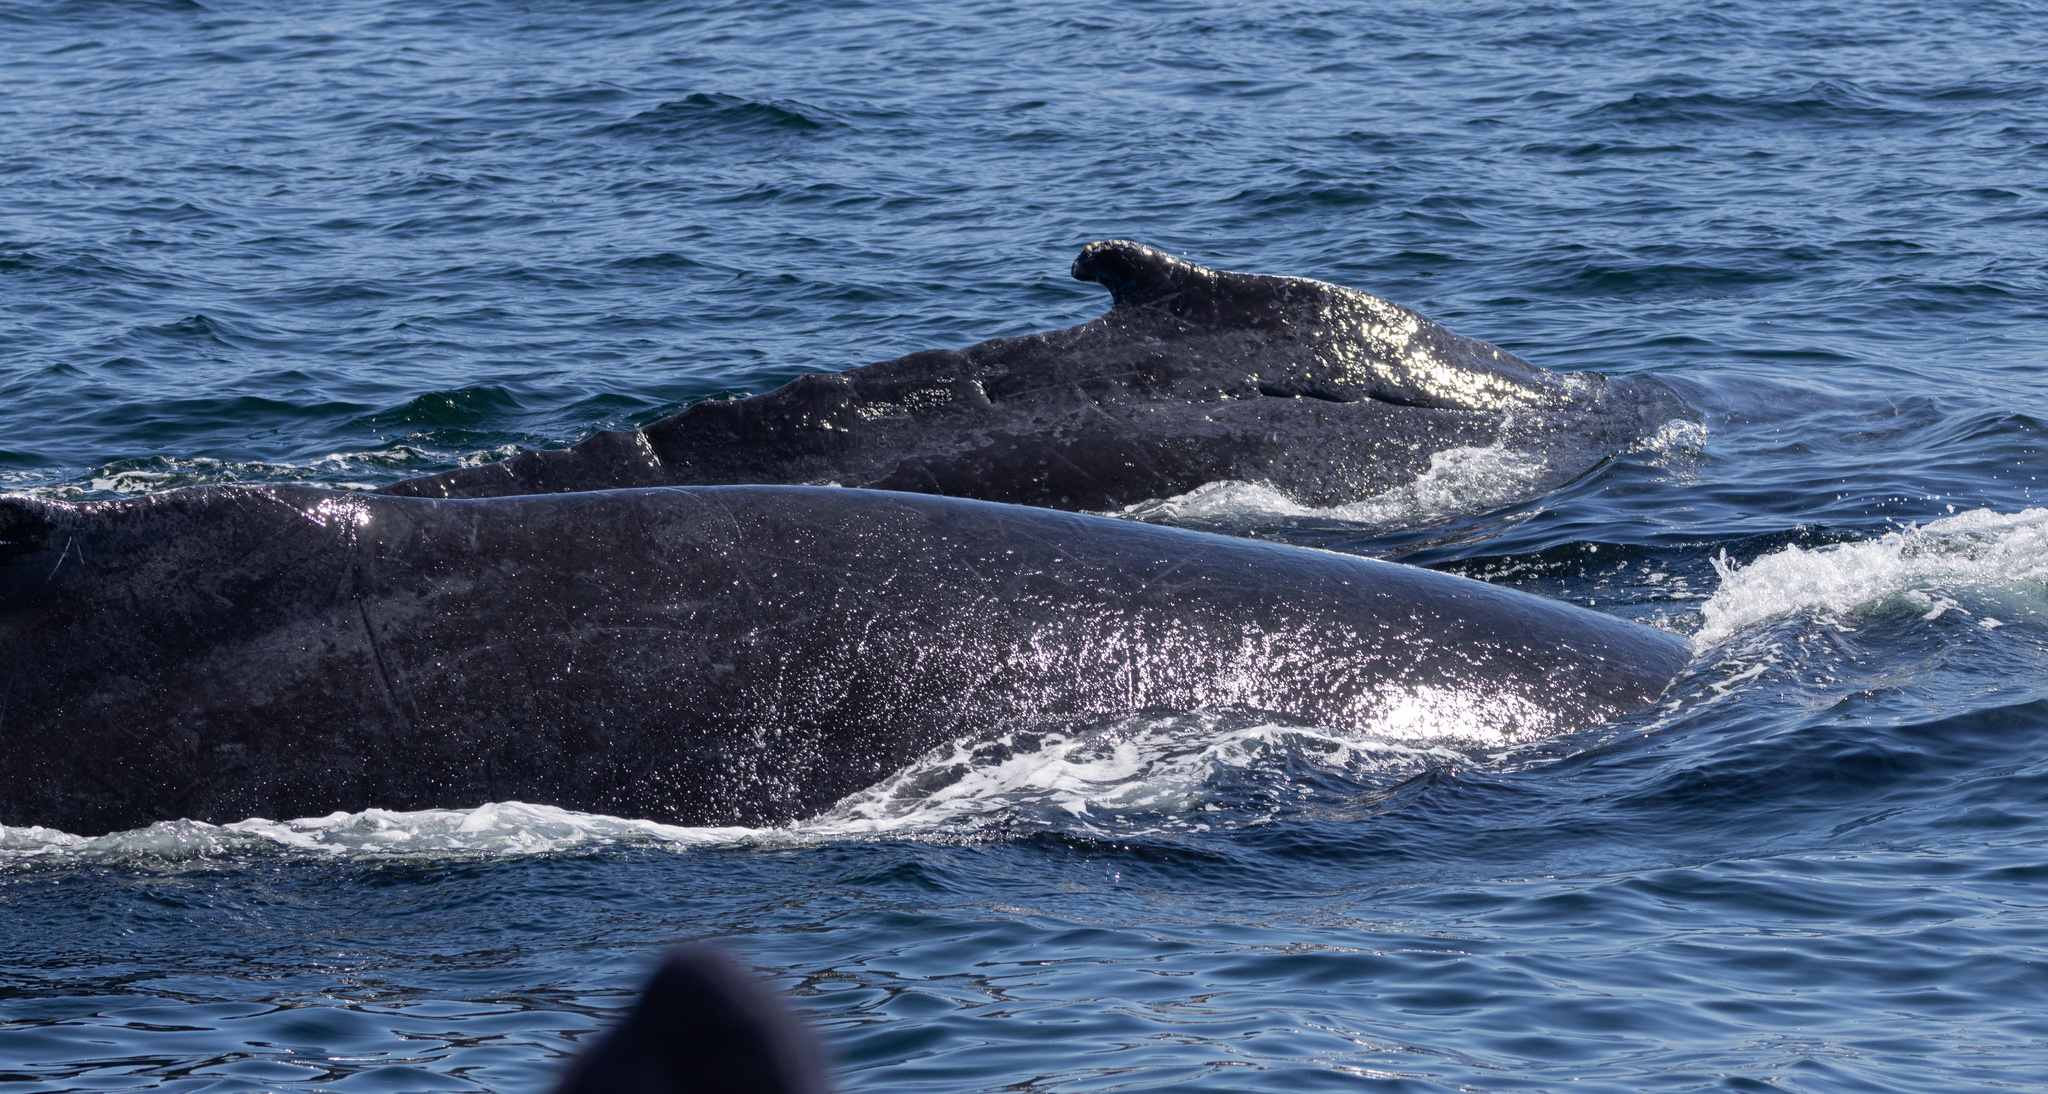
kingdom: Animalia
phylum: Chordata
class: Mammalia
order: Cetacea
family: Balaenopteridae
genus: Megaptera
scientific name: Megaptera novaeangliae
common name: Humpback whale
